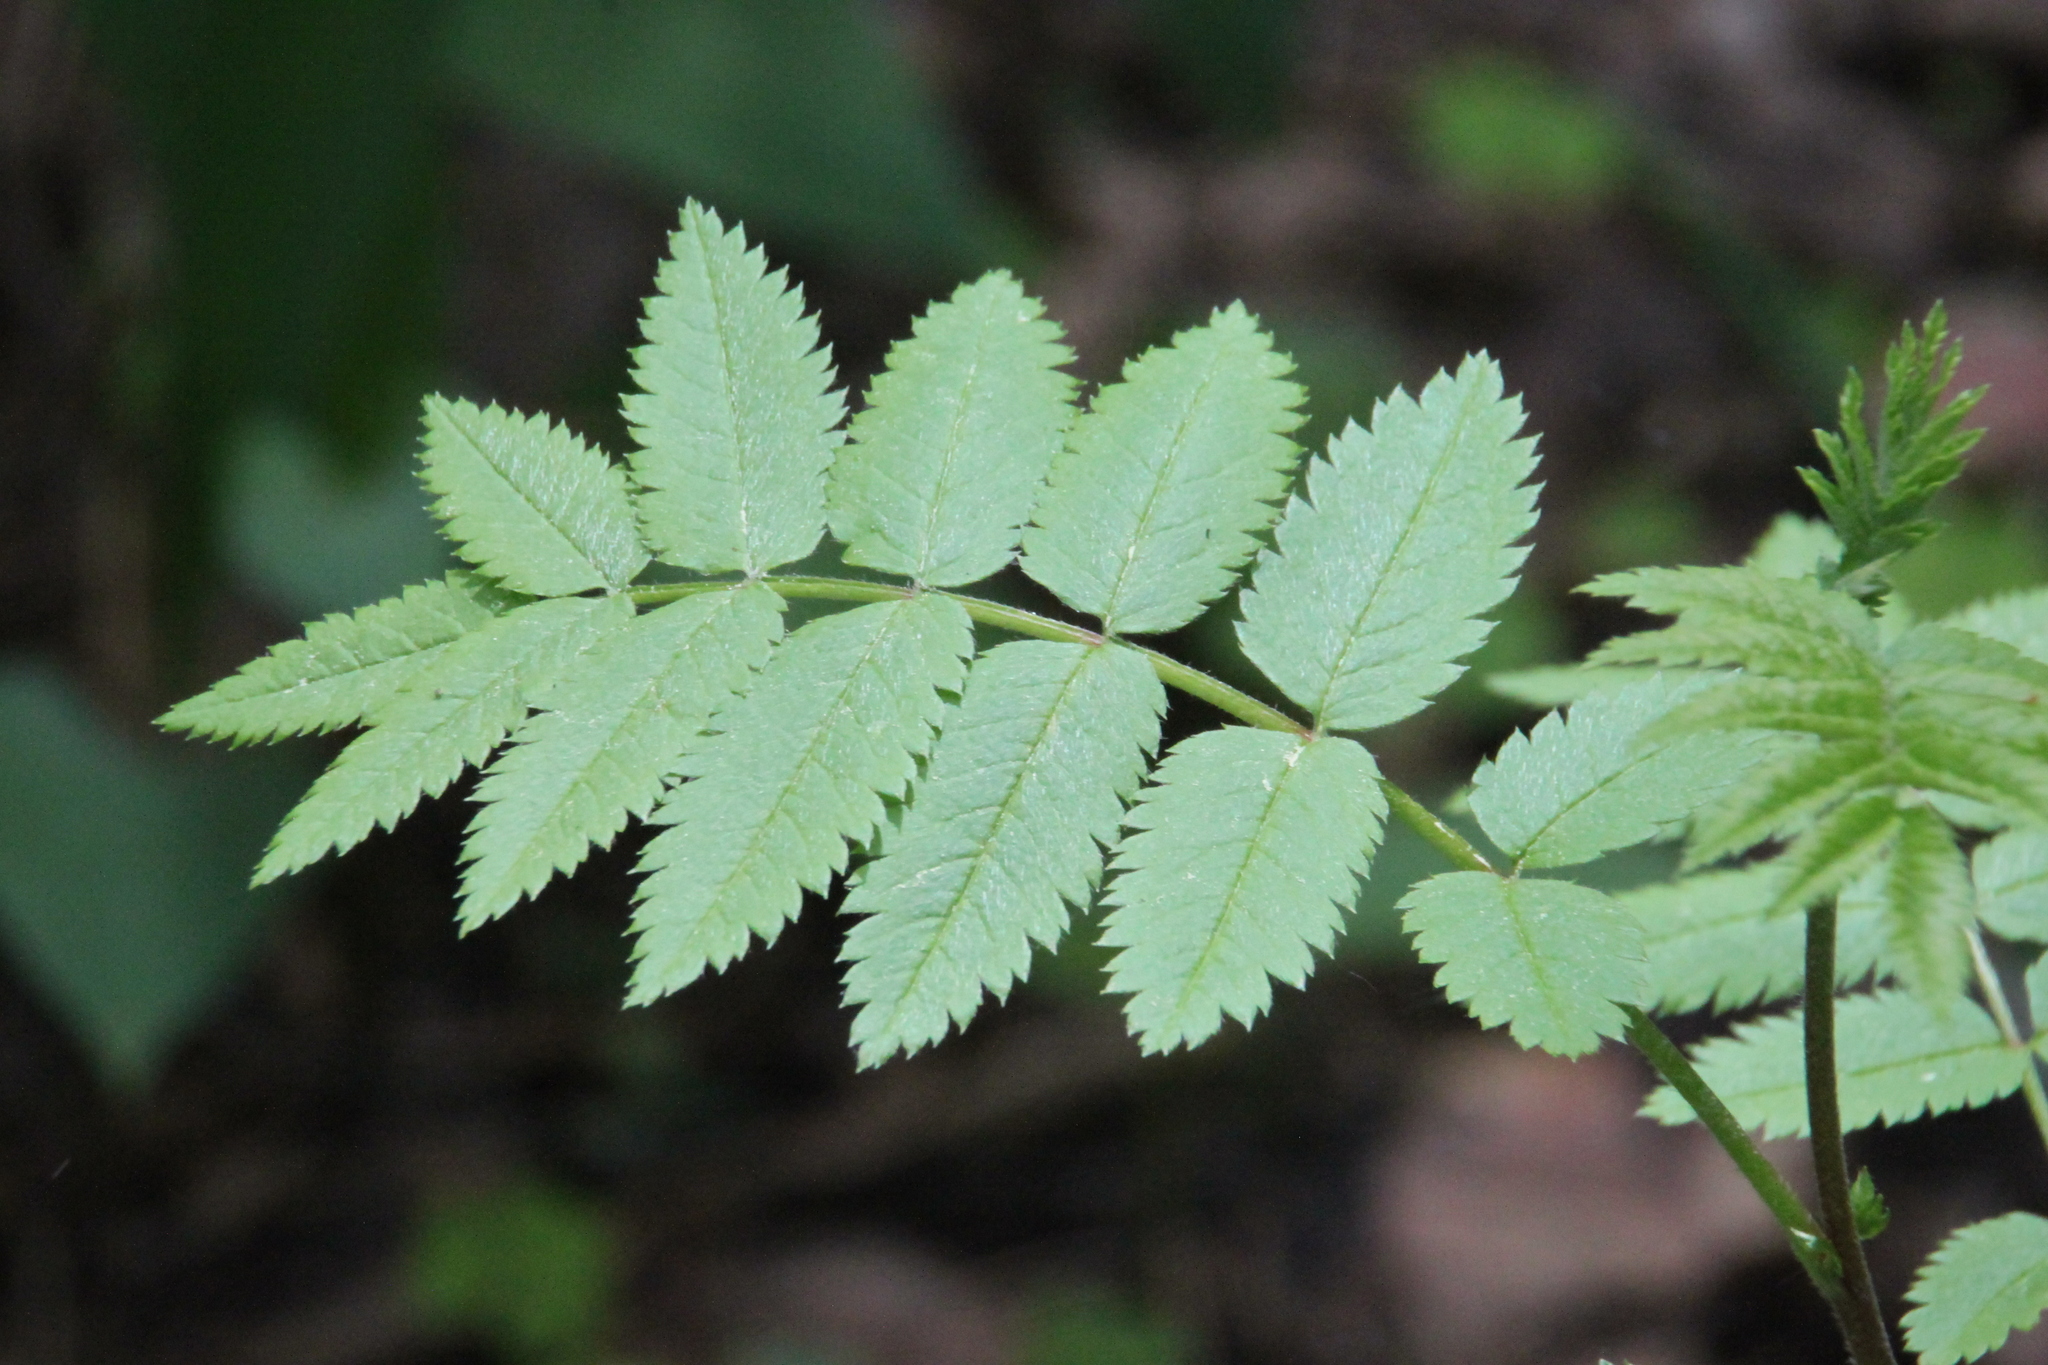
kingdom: Plantae
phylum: Tracheophyta
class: Magnoliopsida
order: Rosales
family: Rosaceae
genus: Sorbus
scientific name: Sorbus aucuparia
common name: Rowan
